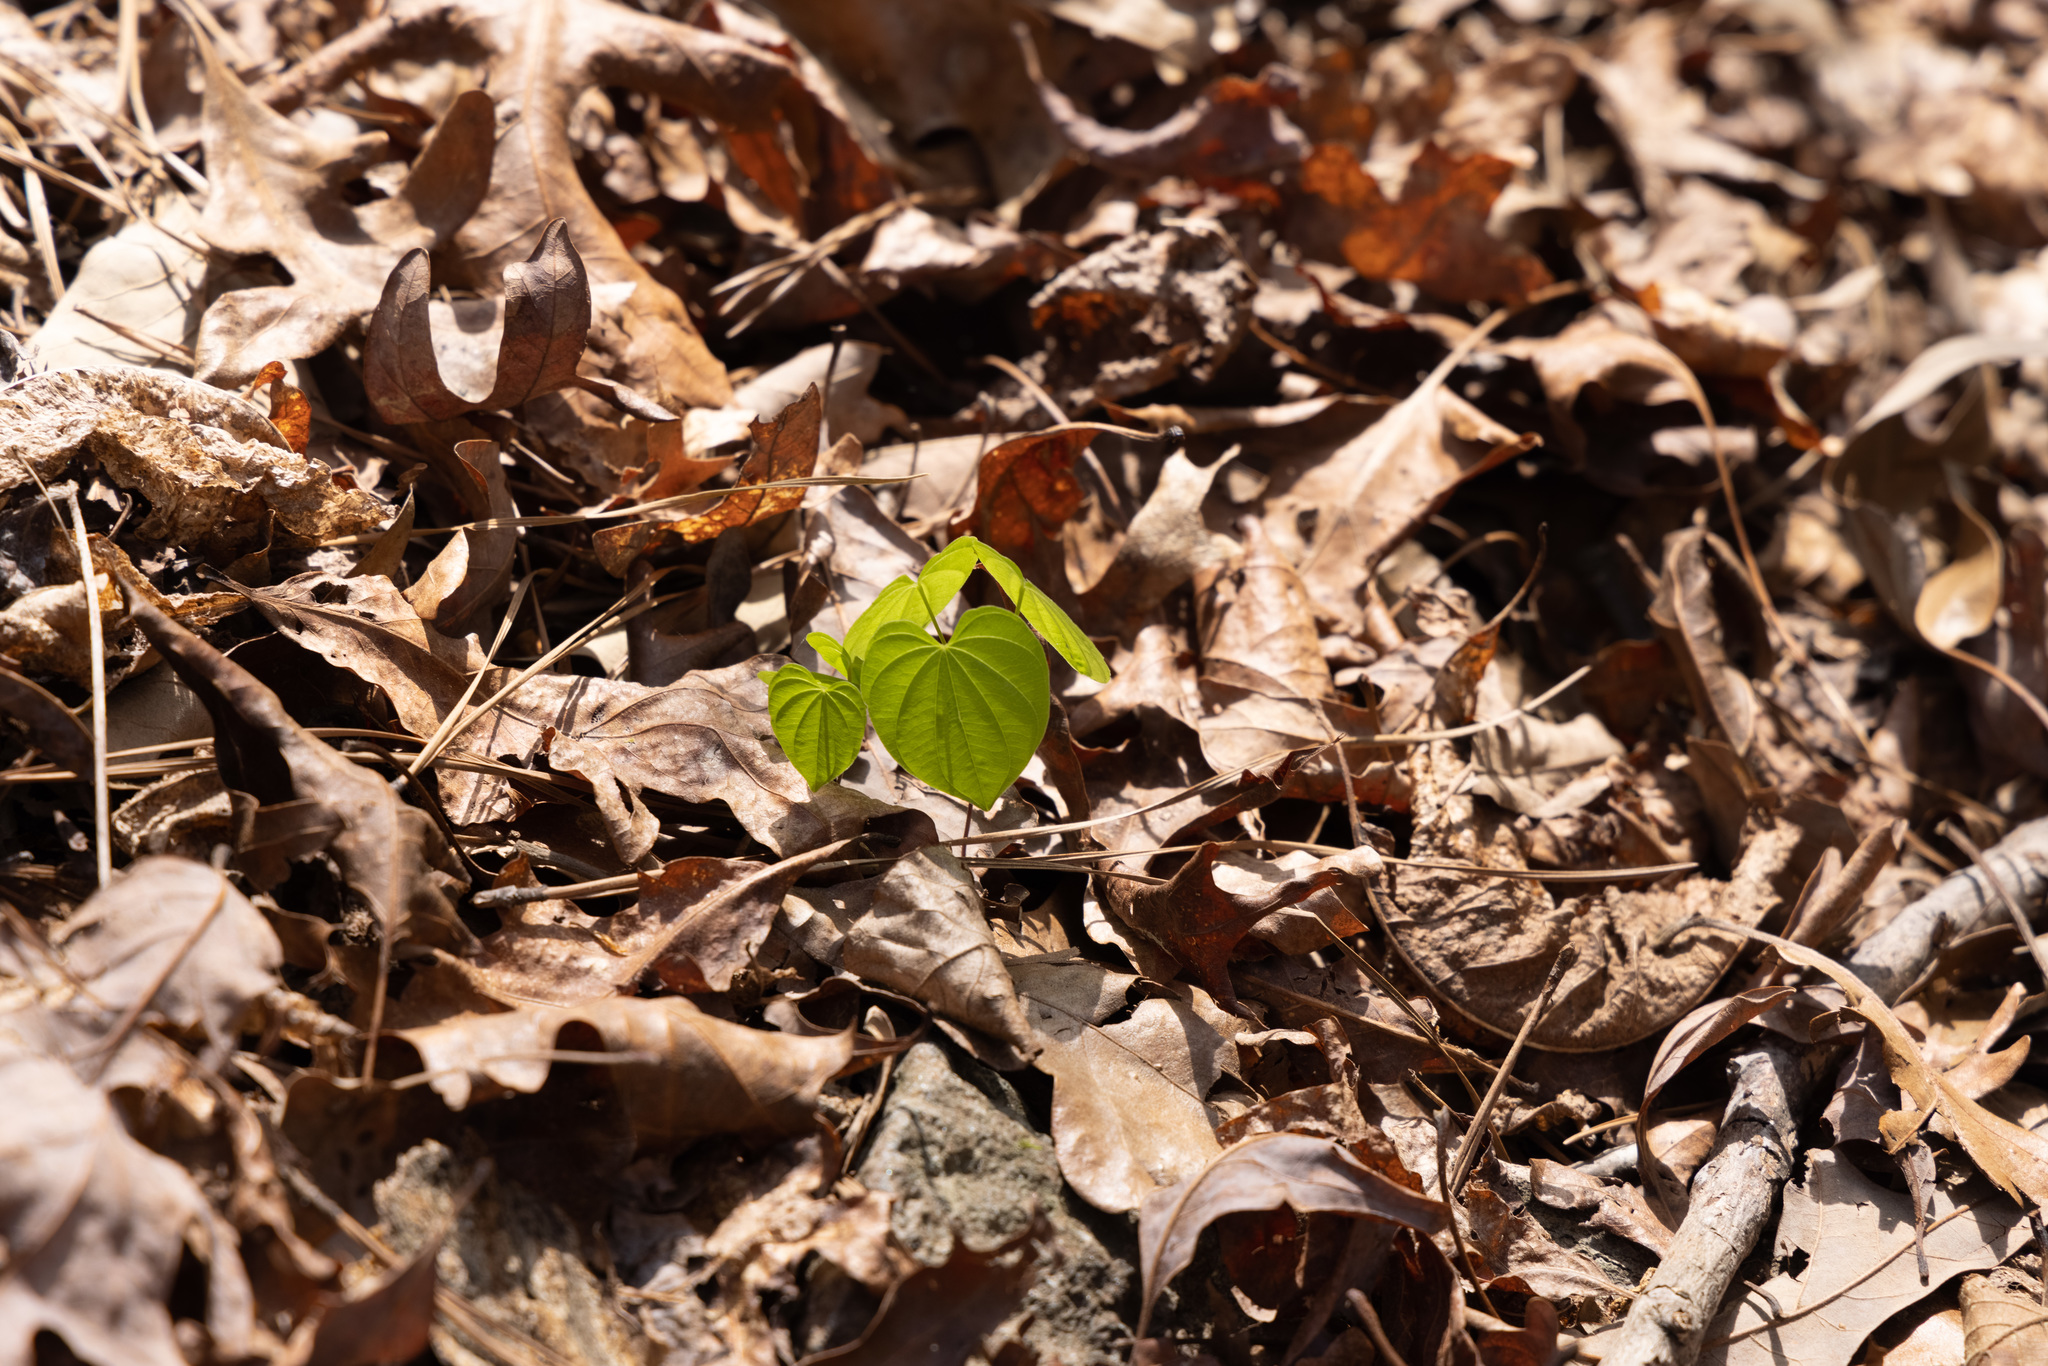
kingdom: Plantae
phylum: Tracheophyta
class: Liliopsida
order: Dioscoreales
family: Dioscoreaceae
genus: Dioscorea
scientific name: Dioscorea villosa
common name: Wild yam
